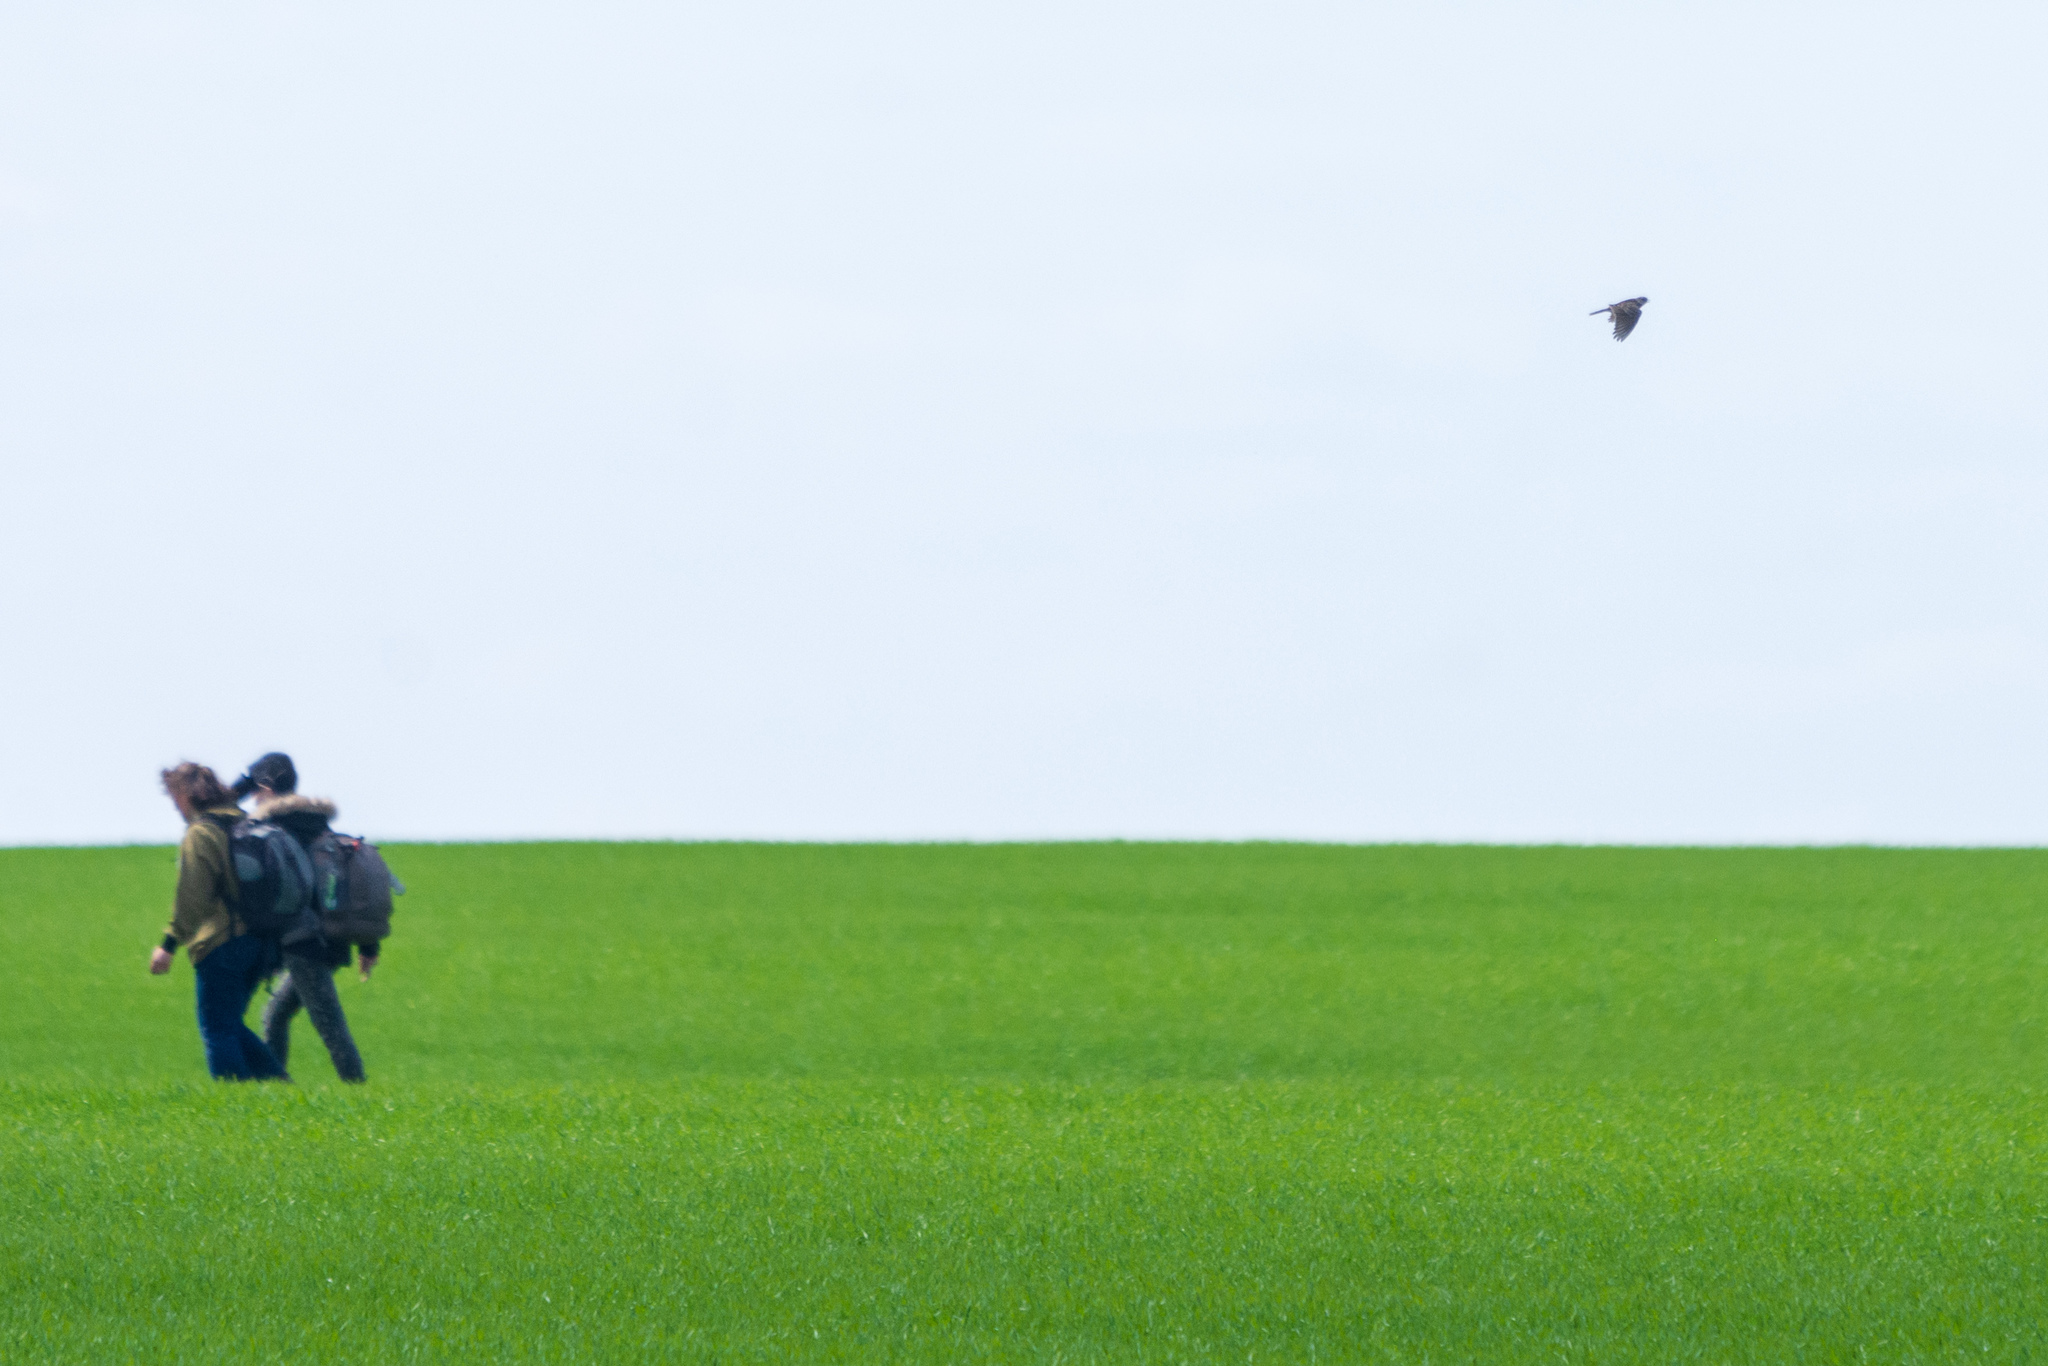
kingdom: Animalia
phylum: Chordata
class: Aves
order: Passeriformes
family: Alaudidae
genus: Alauda
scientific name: Alauda arvensis
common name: Eurasian skylark
